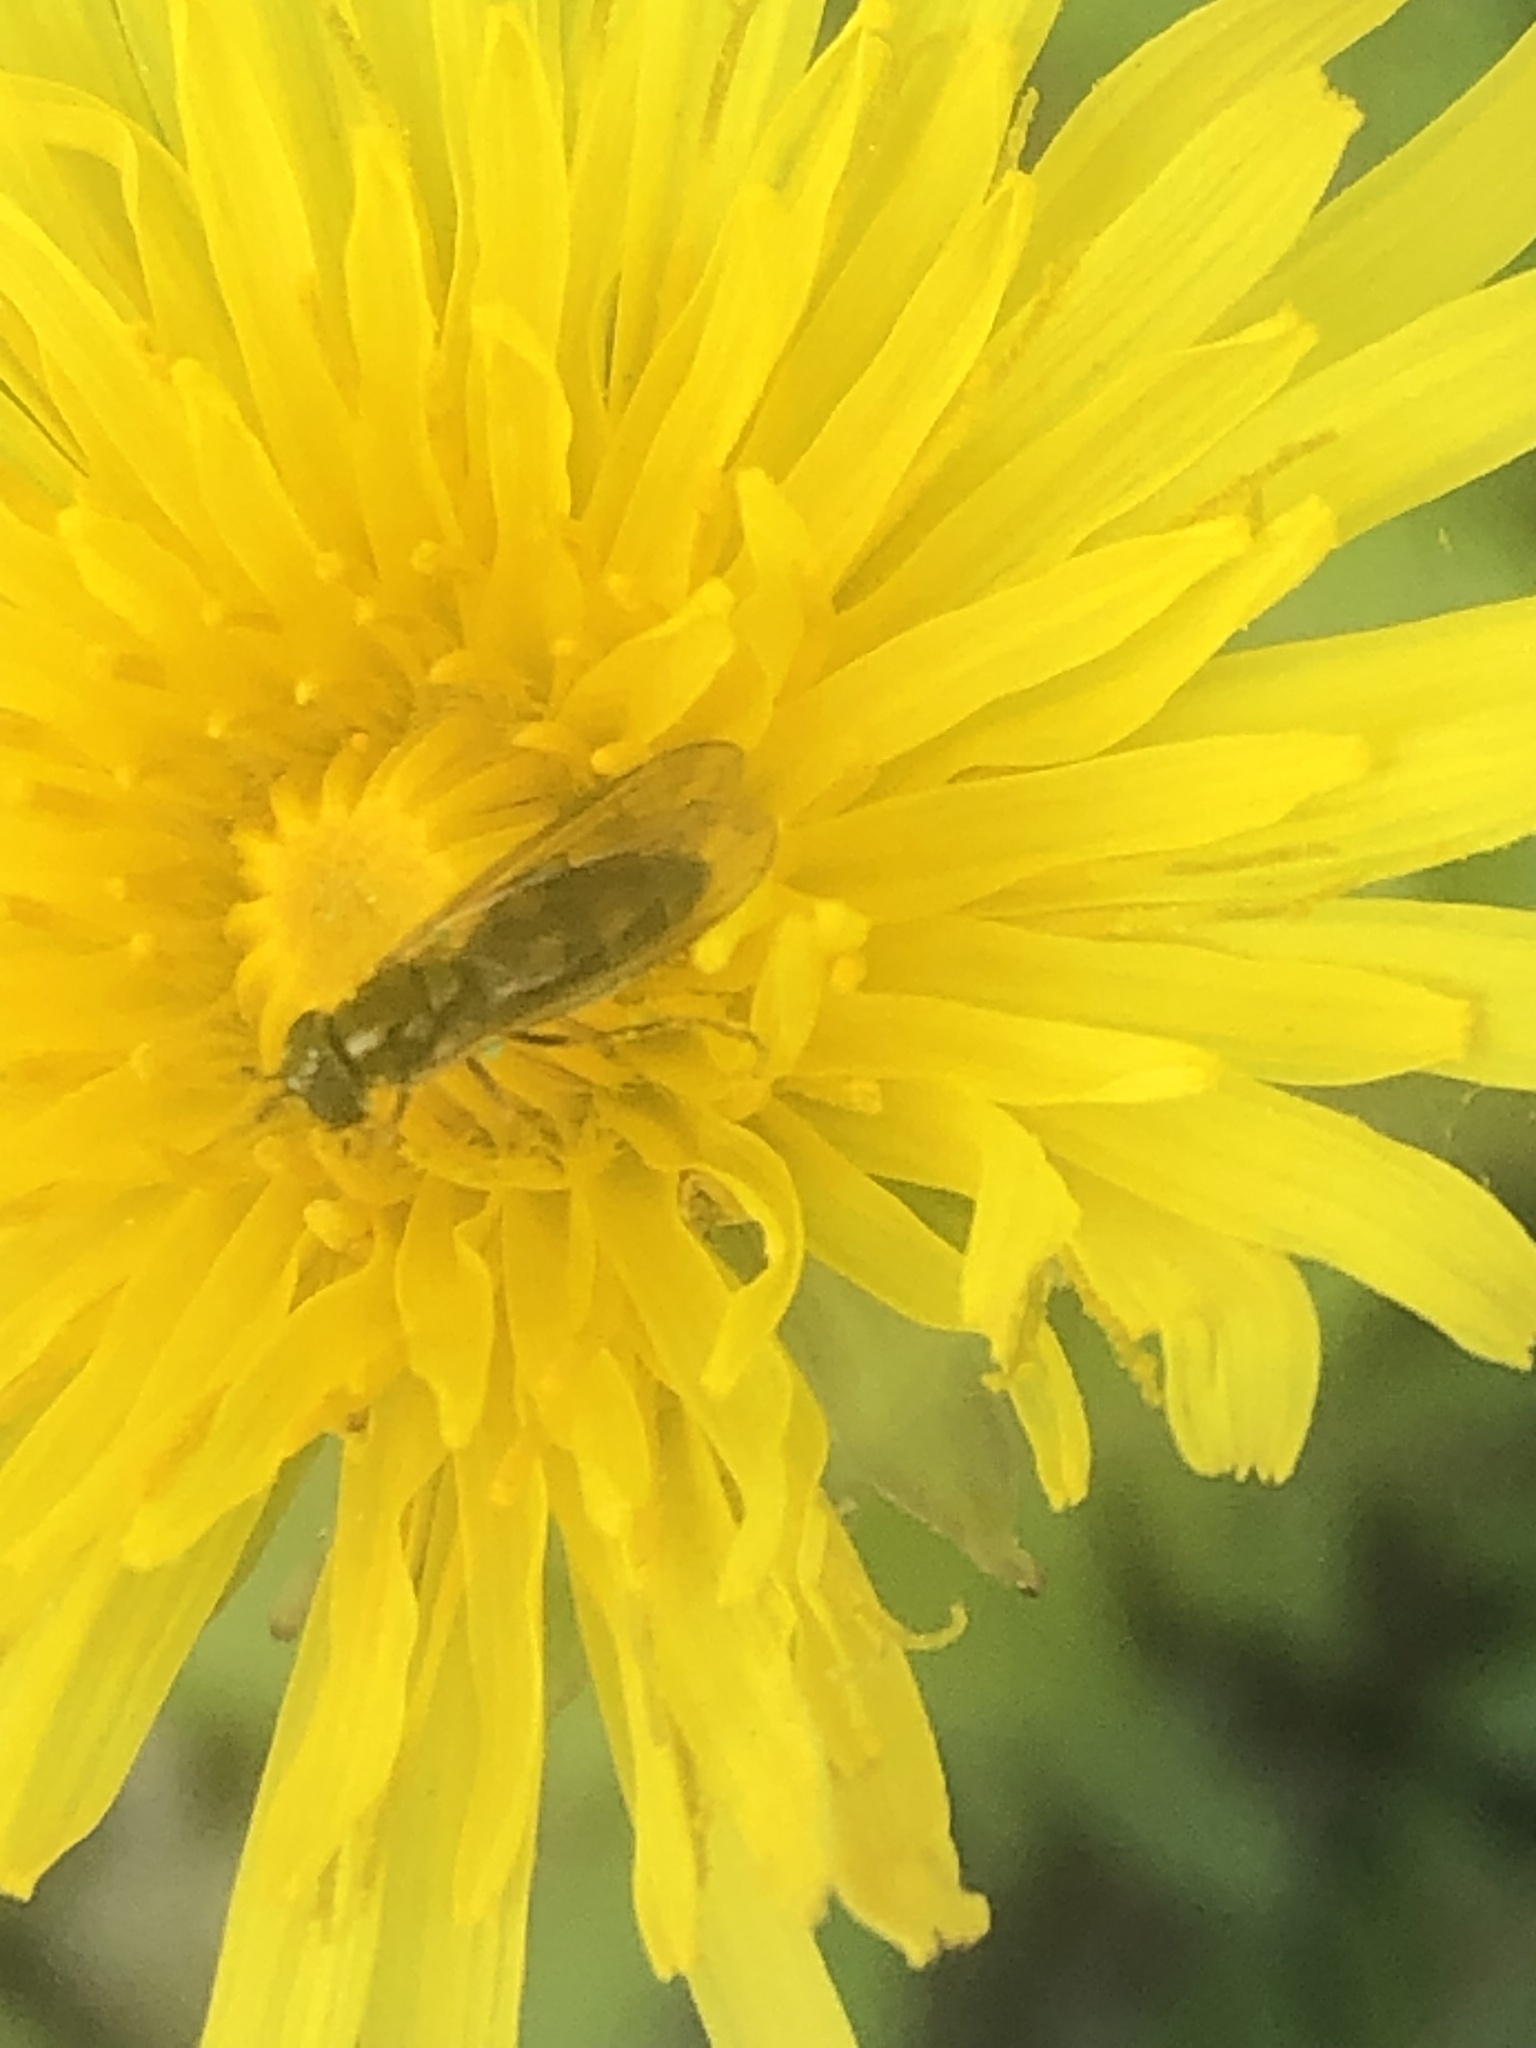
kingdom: Animalia
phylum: Arthropoda
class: Insecta
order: Diptera
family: Syrphidae
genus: Melanostoma
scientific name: Melanostoma mellina
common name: Hover fly
